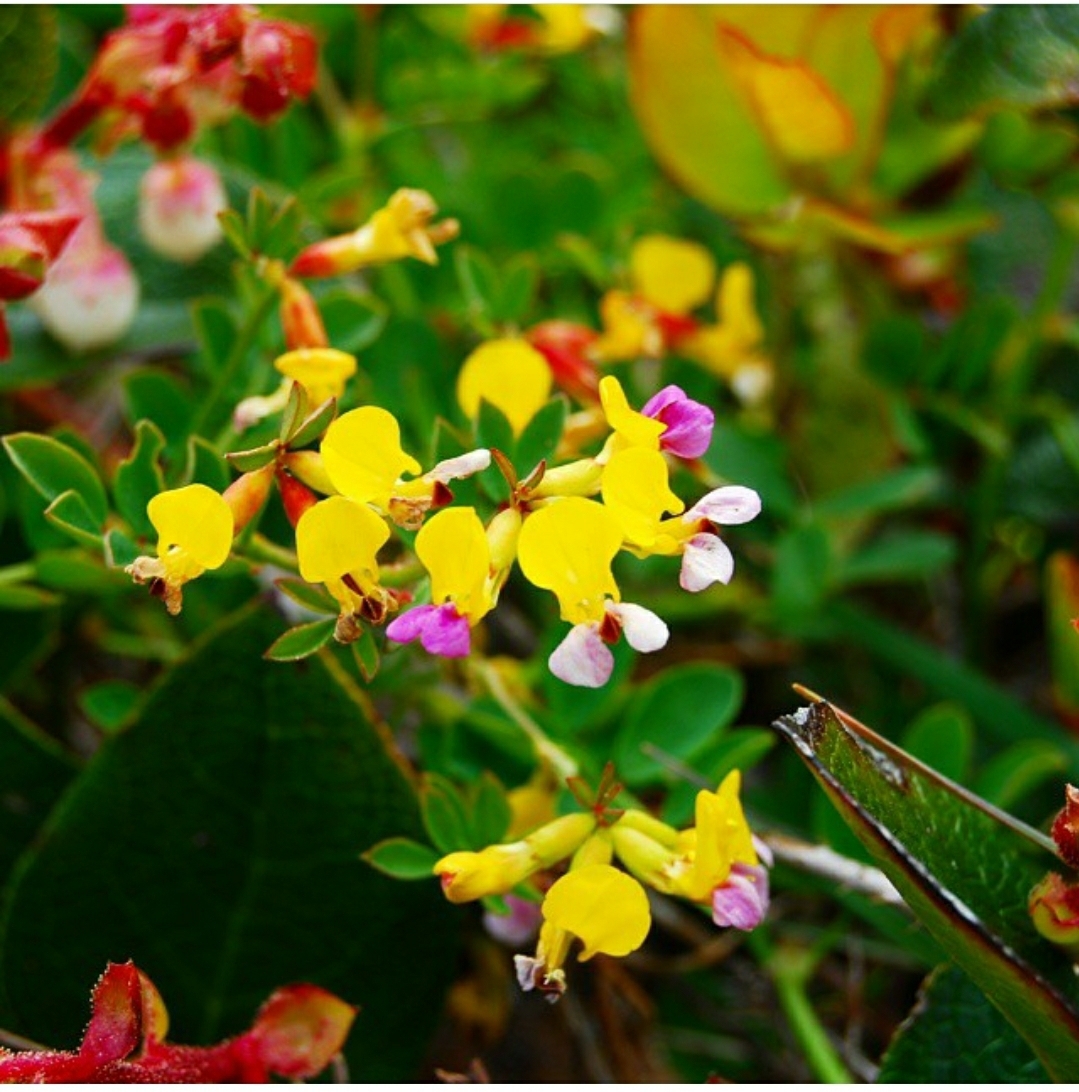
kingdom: Plantae
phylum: Tracheophyta
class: Magnoliopsida
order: Fabales
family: Fabaceae
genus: Hosackia
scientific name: Hosackia gracilis
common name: Seaside bird's-foot lotus
